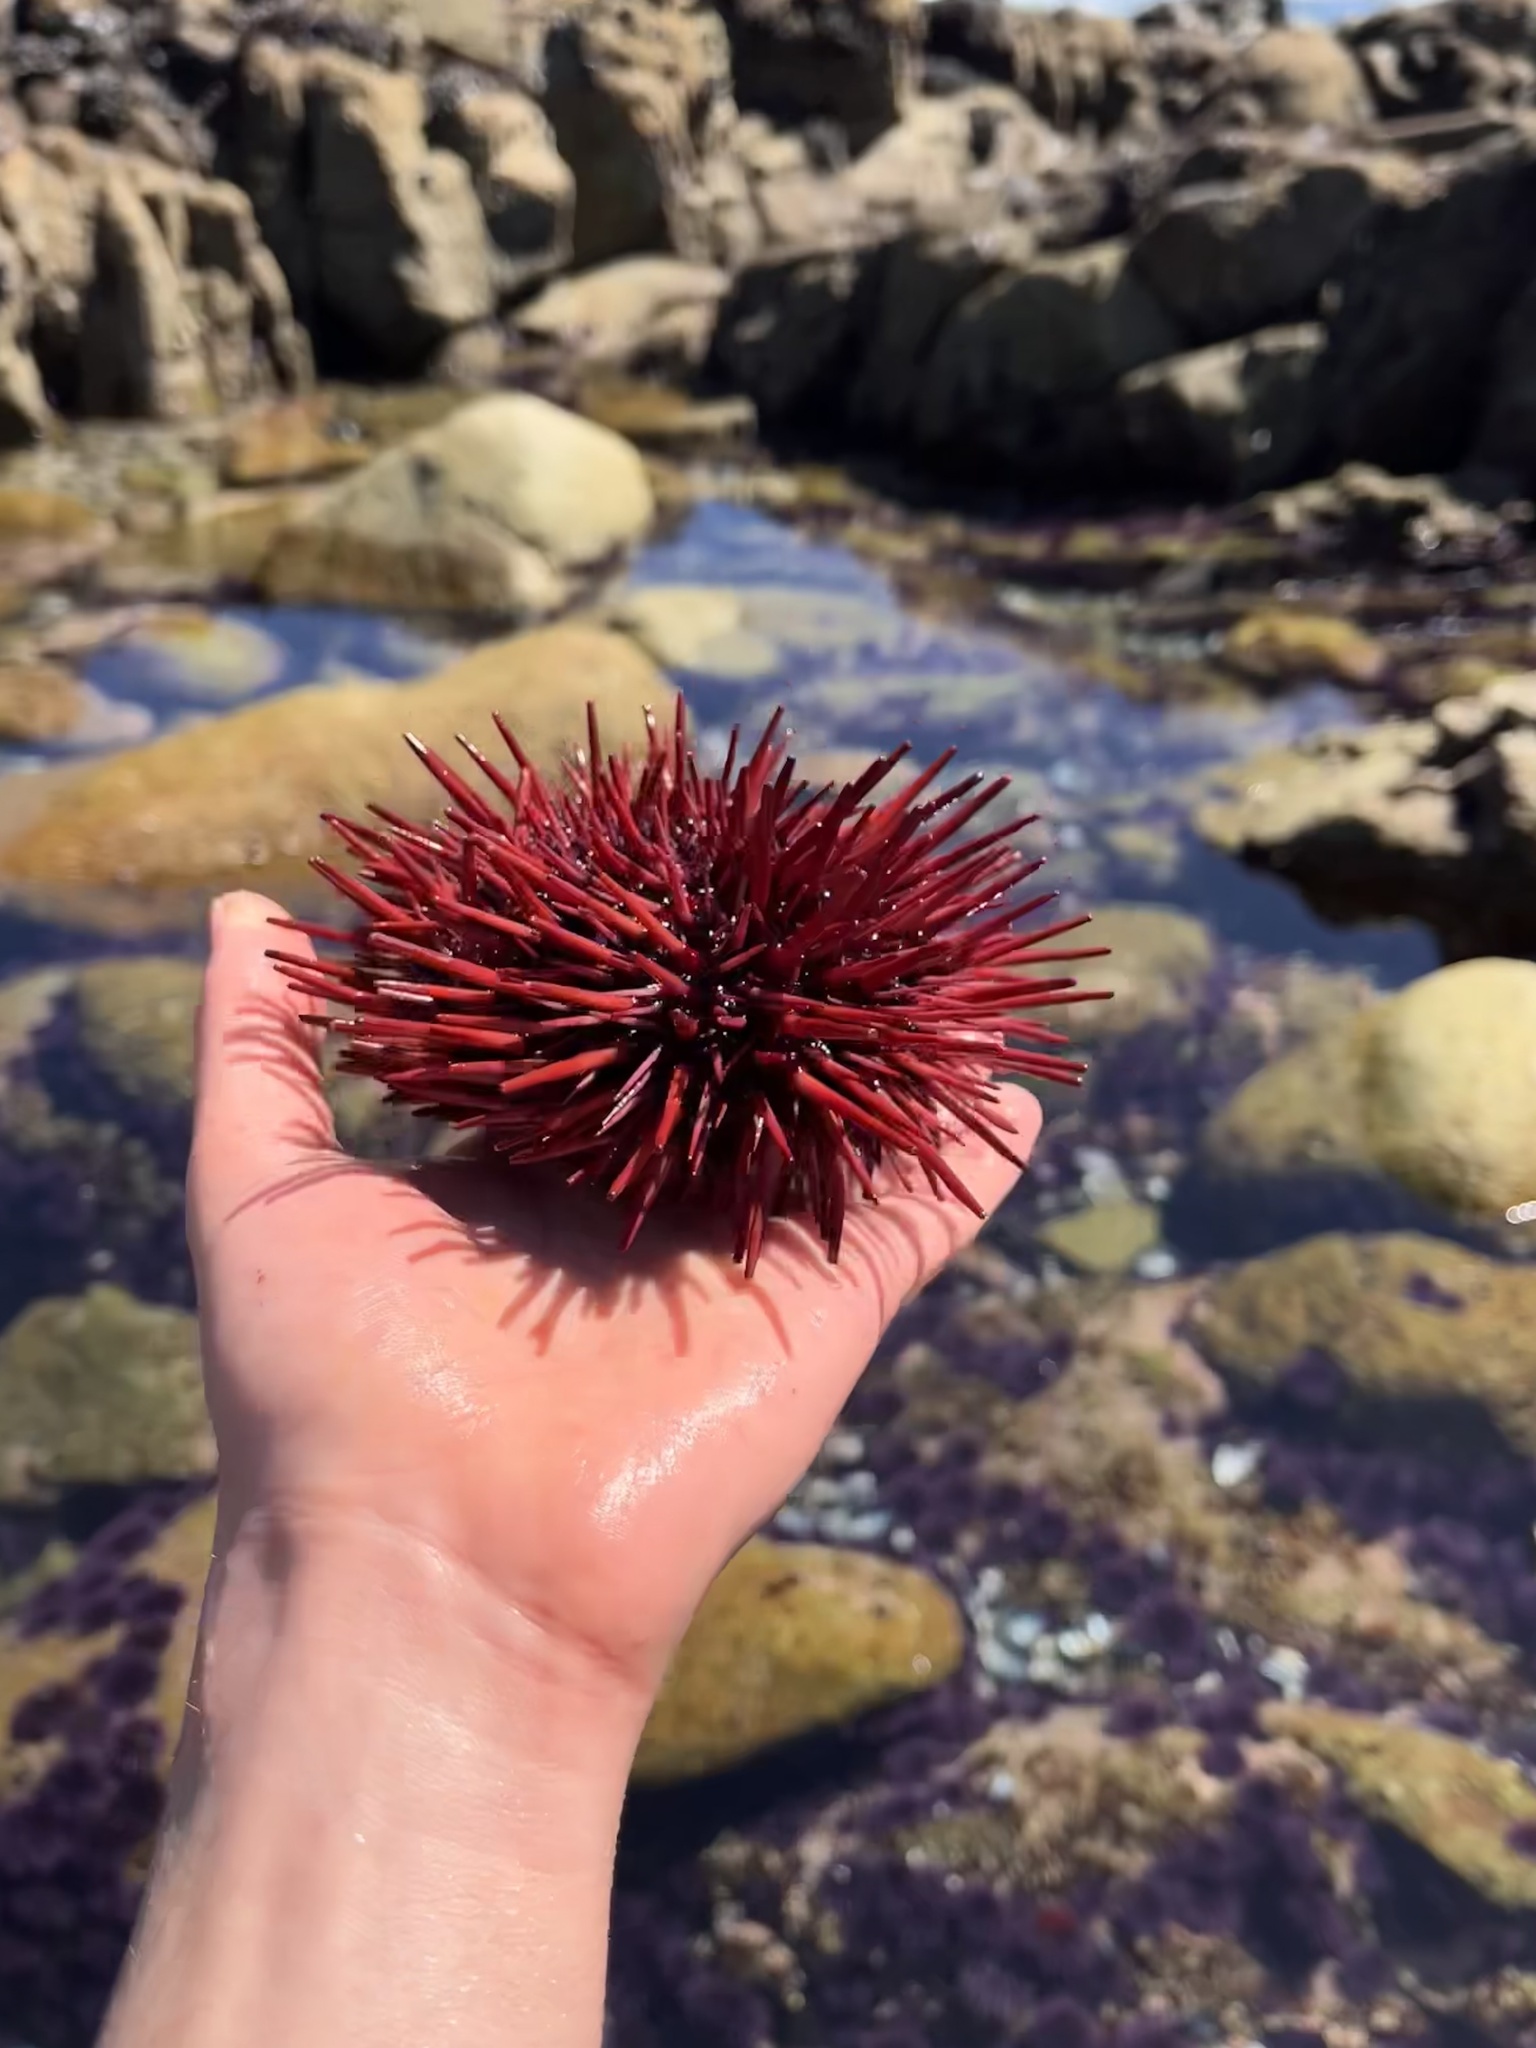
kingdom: Animalia
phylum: Echinodermata
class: Echinoidea
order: Camarodonta
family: Strongylocentrotidae
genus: Mesocentrotus
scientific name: Mesocentrotus franciscanus
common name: Red sea urchin
